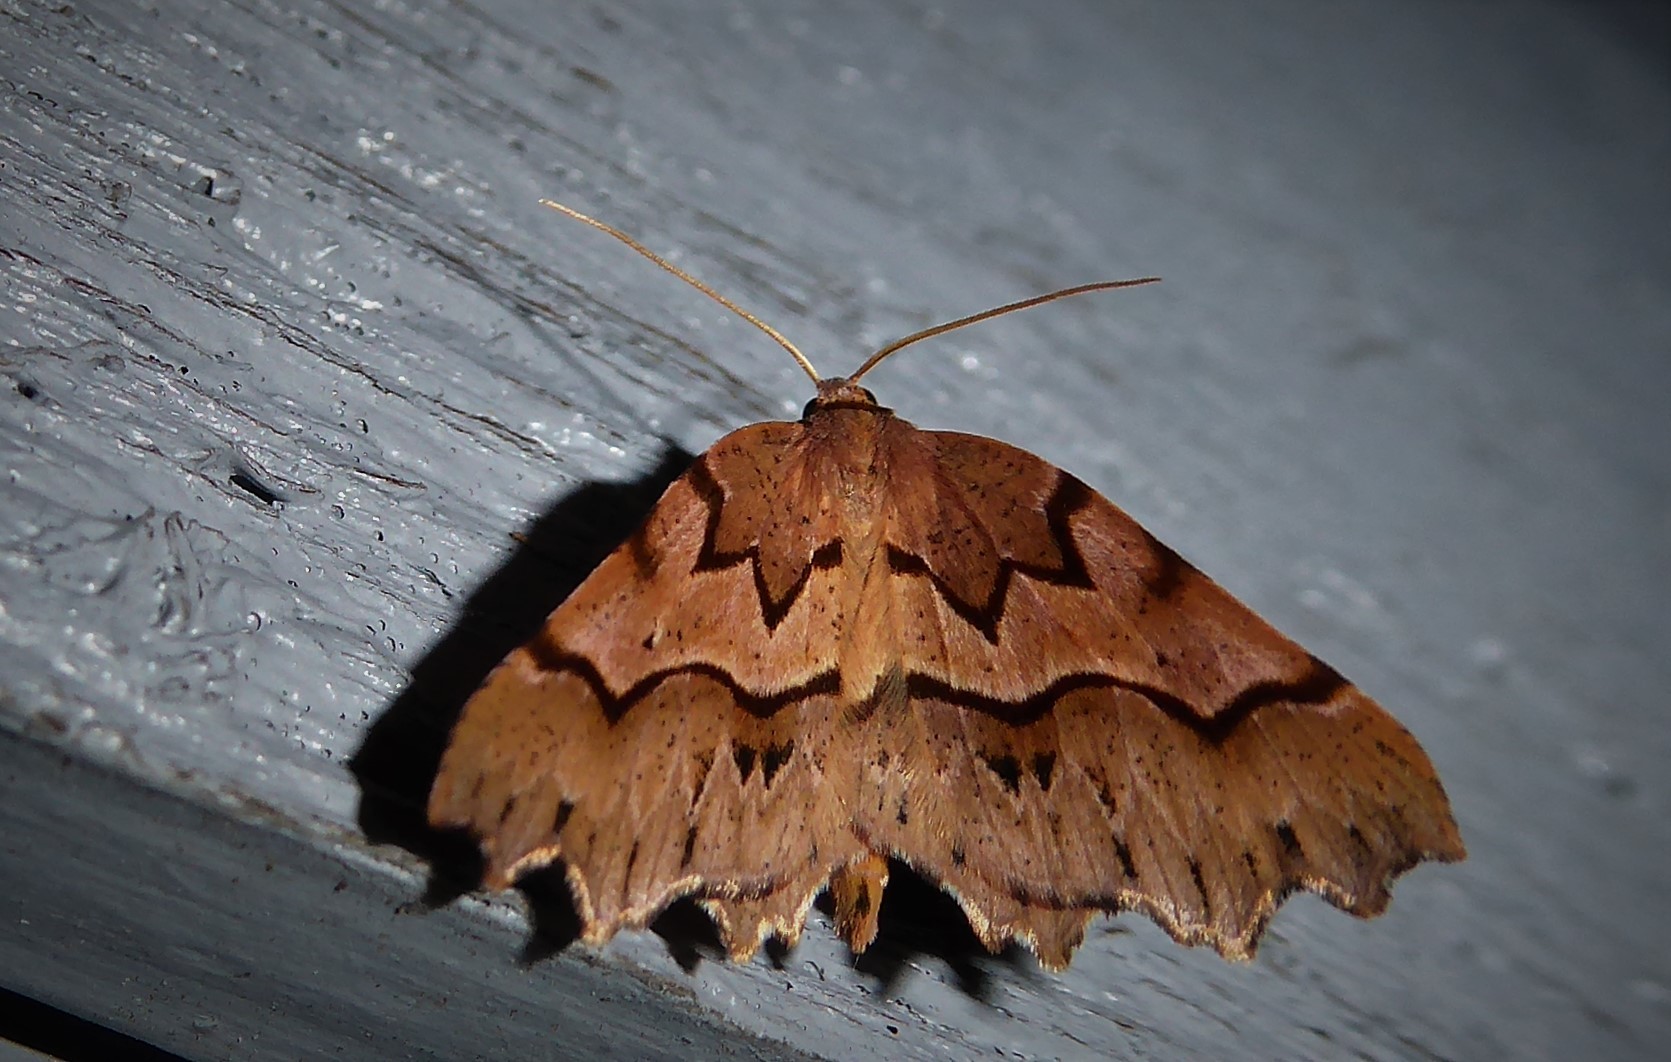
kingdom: Animalia
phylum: Arthropoda
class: Insecta
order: Lepidoptera
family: Geometridae
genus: Ischalis
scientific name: Ischalis fortinata
